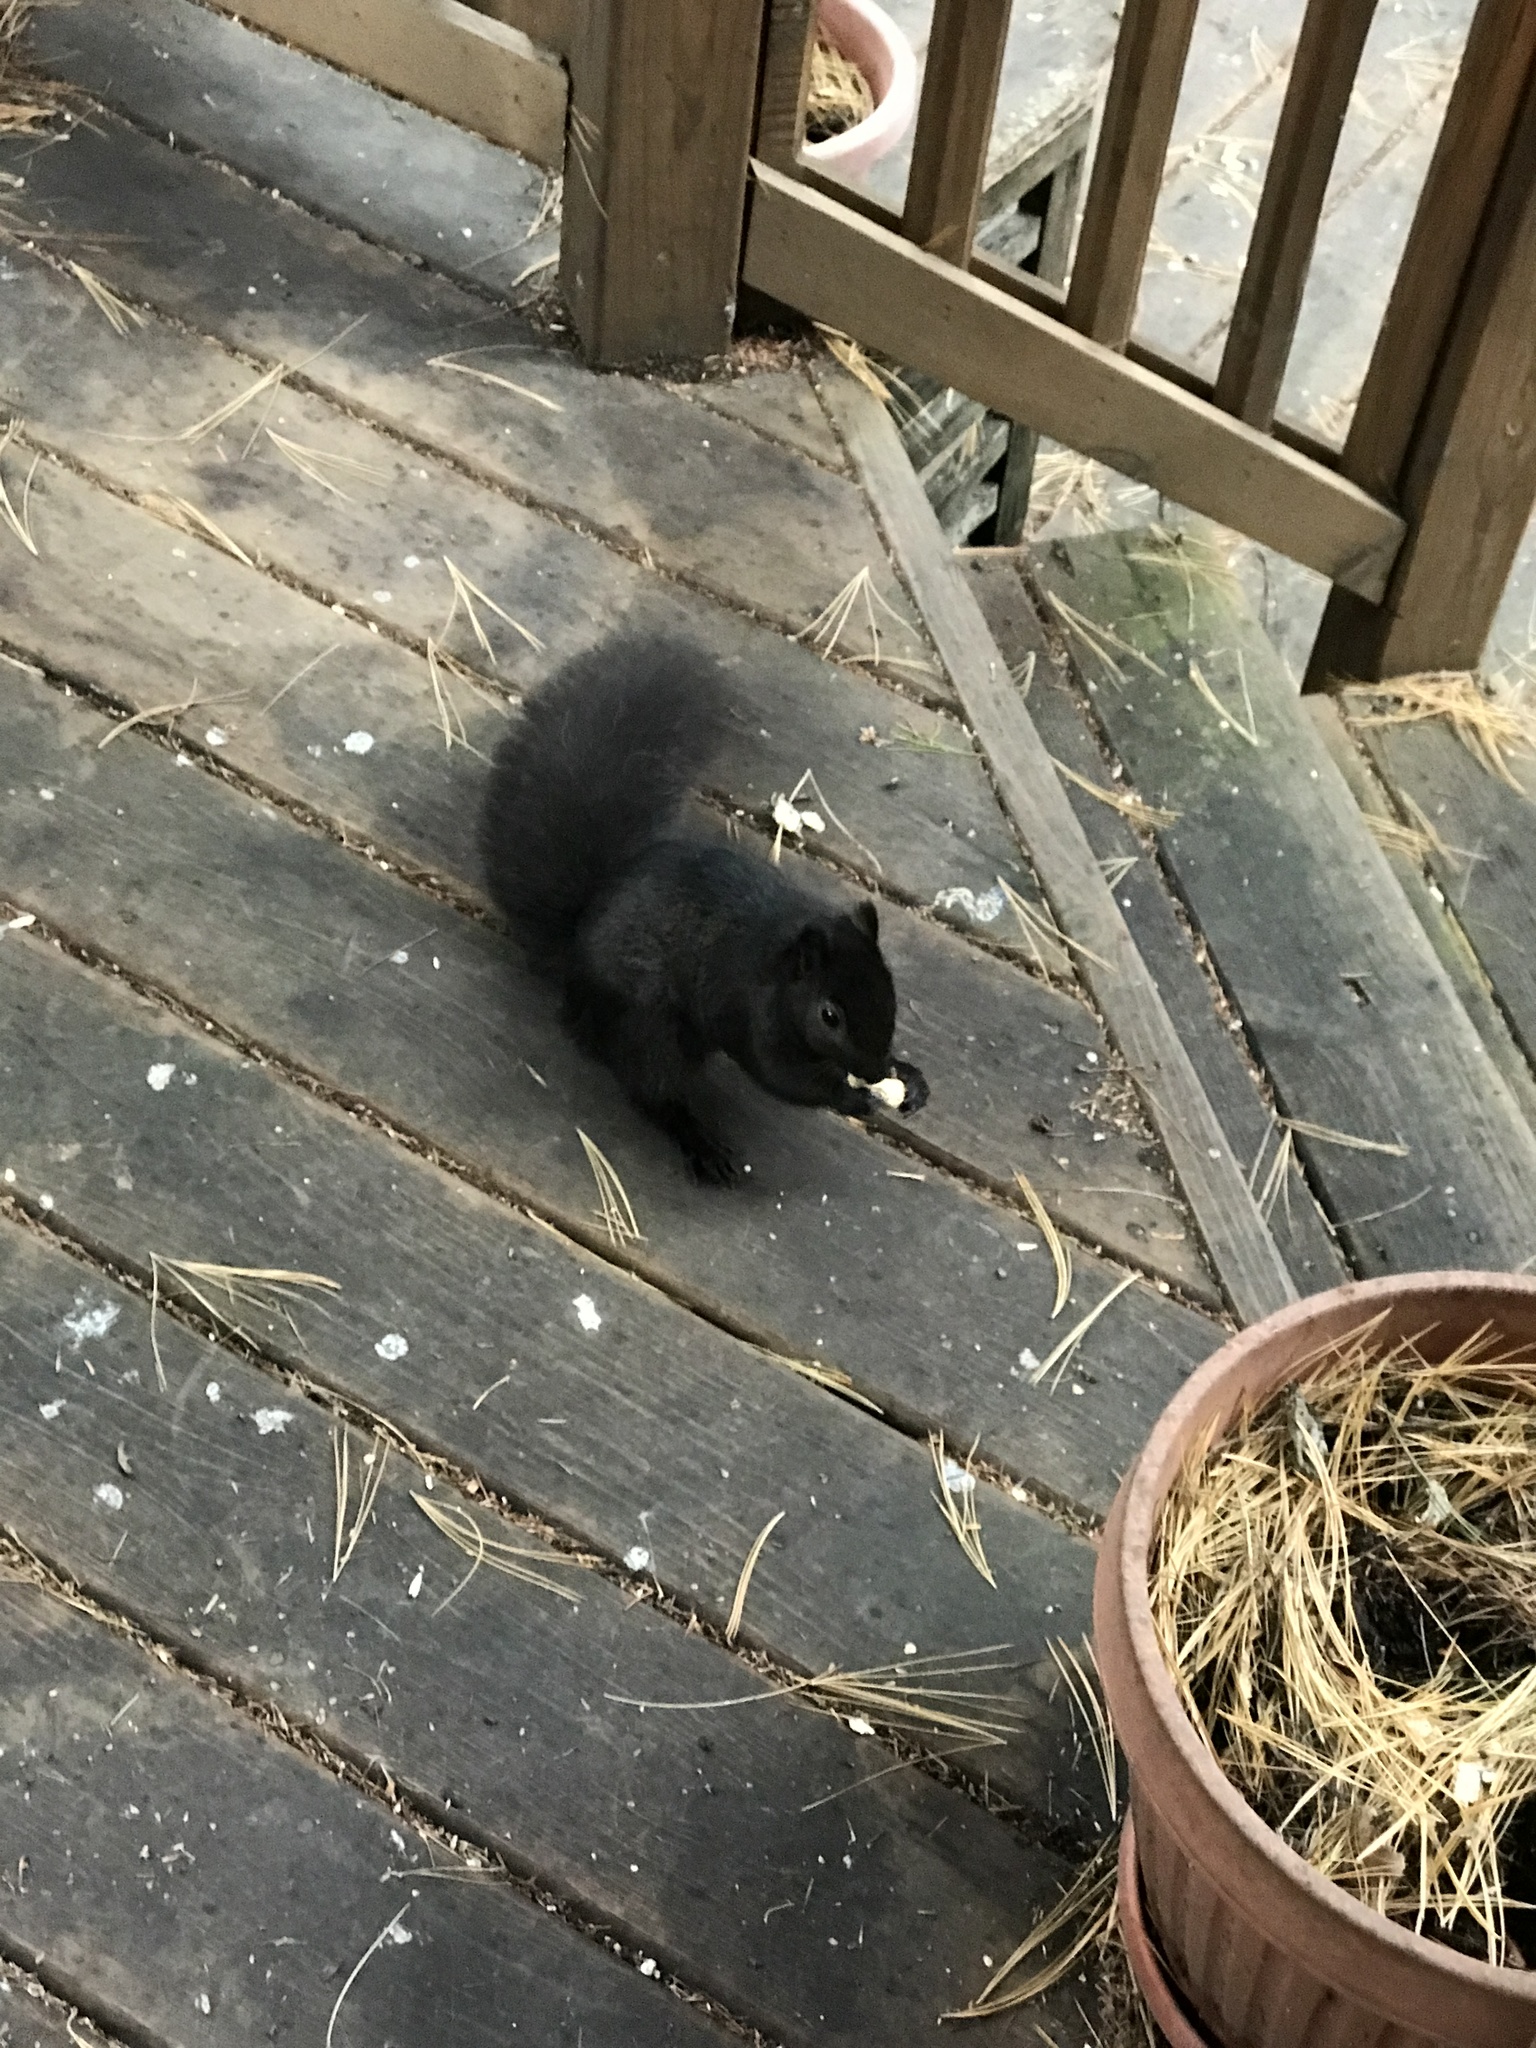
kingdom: Animalia
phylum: Chordata
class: Mammalia
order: Rodentia
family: Sciuridae
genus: Sciurus
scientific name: Sciurus carolinensis
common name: Eastern gray squirrel
